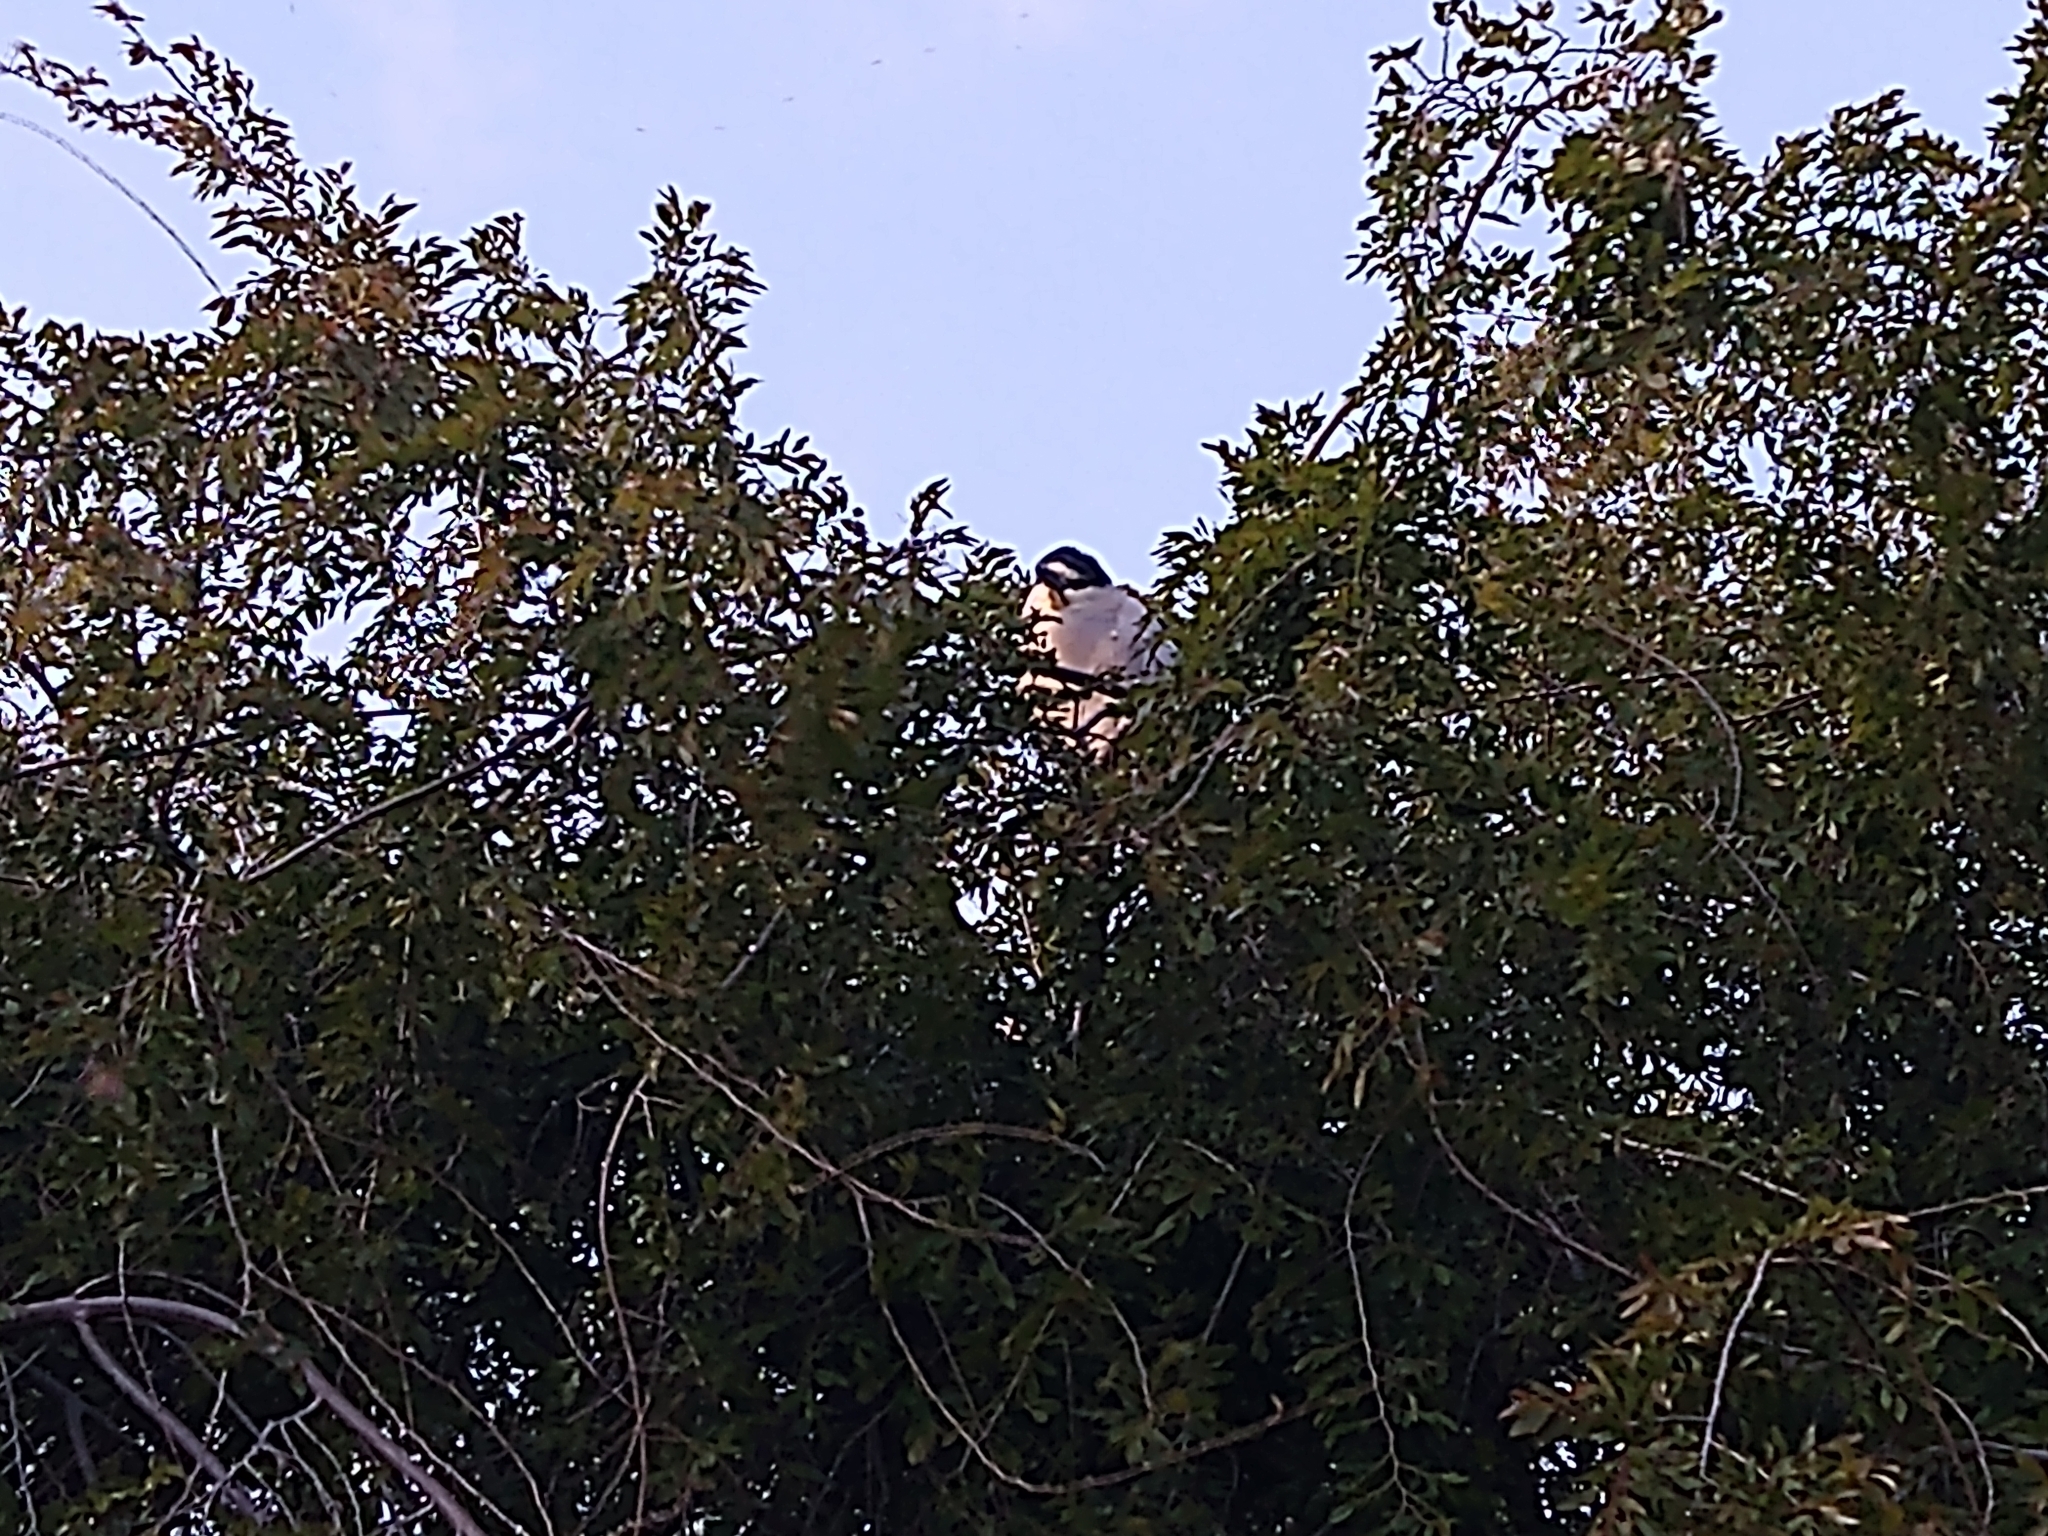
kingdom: Animalia
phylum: Chordata
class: Aves
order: Pelecaniformes
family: Ardeidae
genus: Nycticorax
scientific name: Nycticorax nycticorax
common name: Black-crowned night heron
